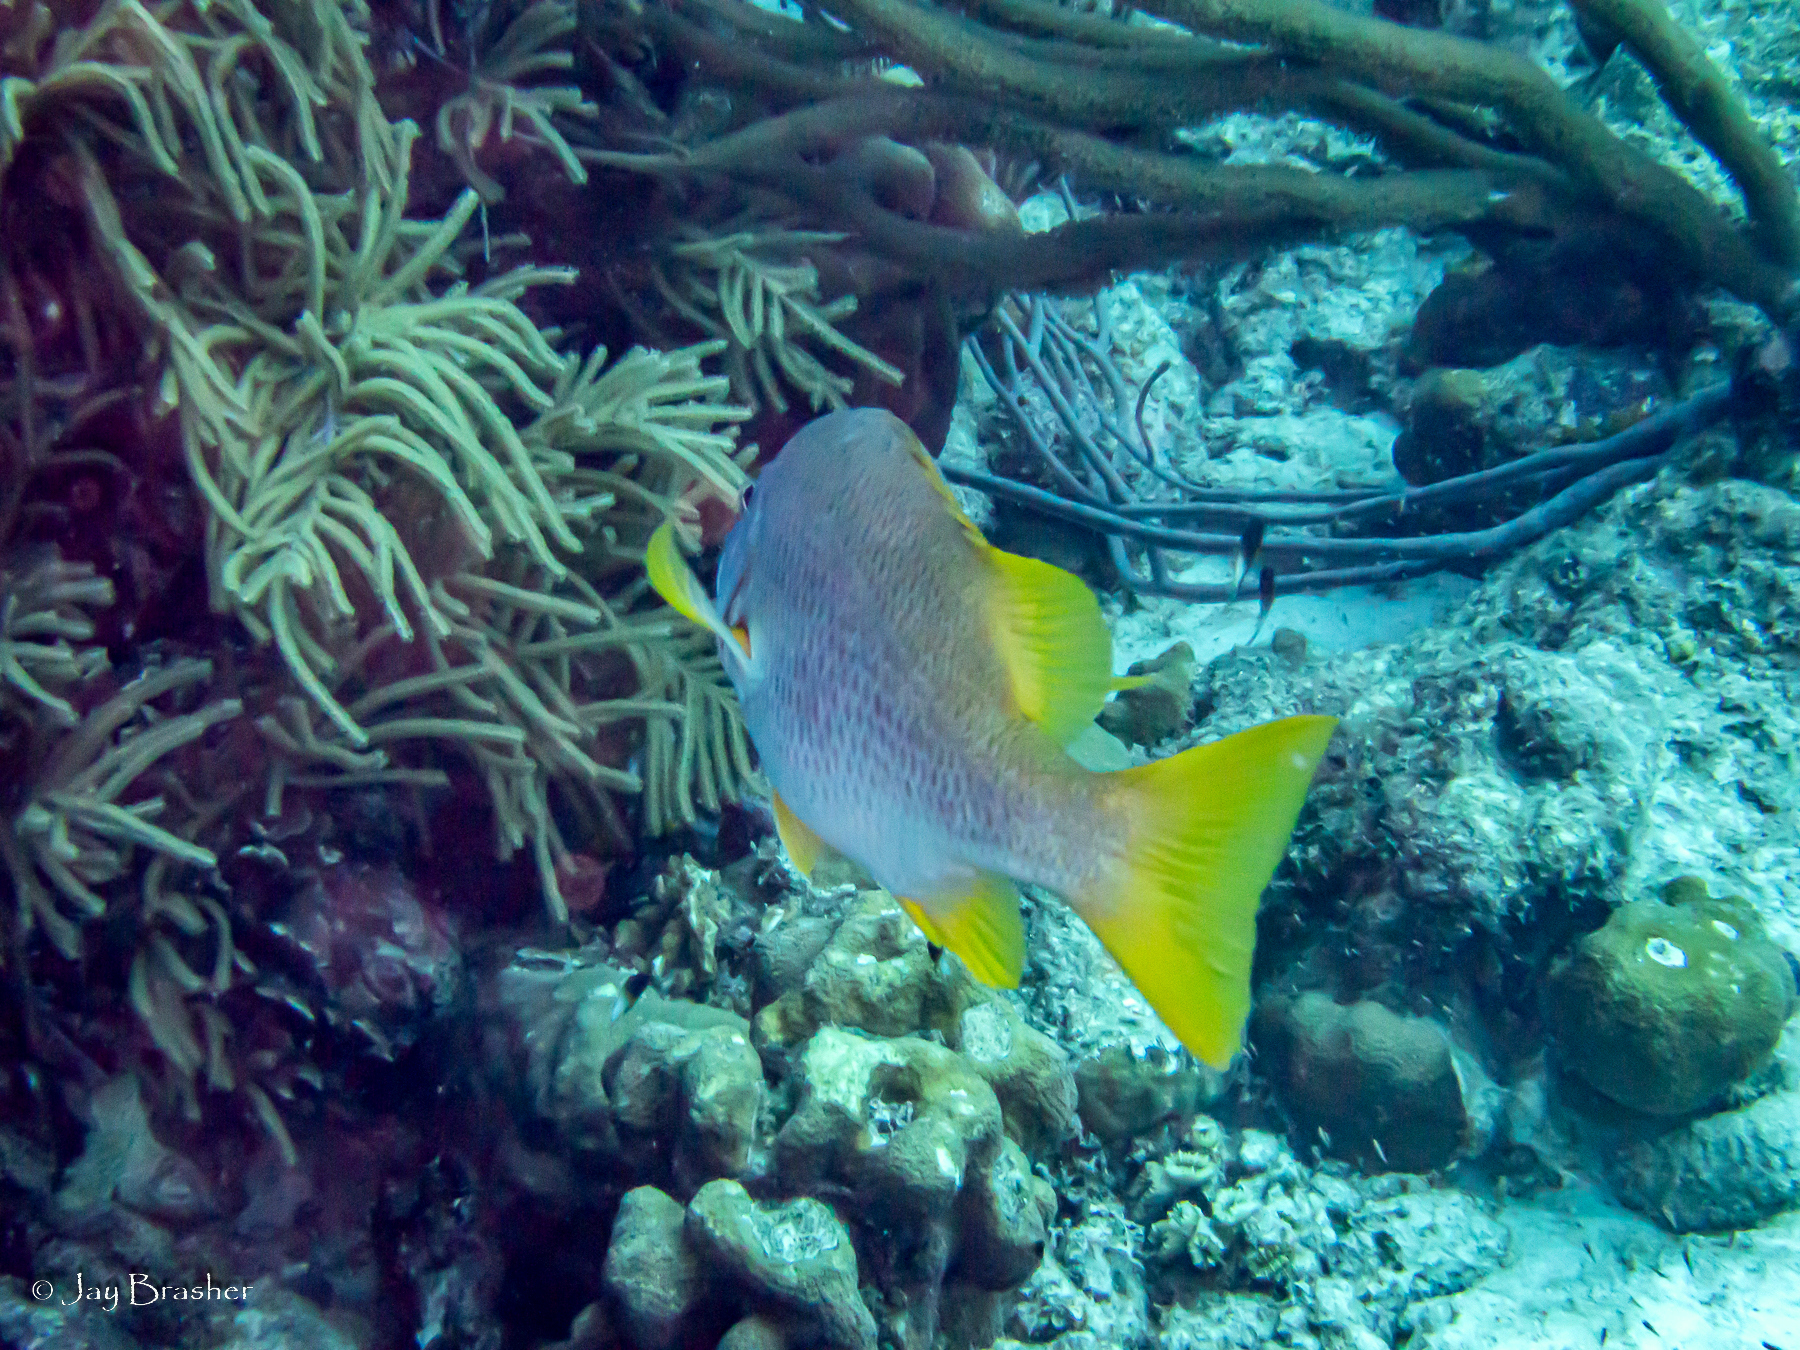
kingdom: Animalia
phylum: Chordata
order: Perciformes
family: Lutjanidae
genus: Lutjanus
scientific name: Lutjanus apodus
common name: Schoolmaster
